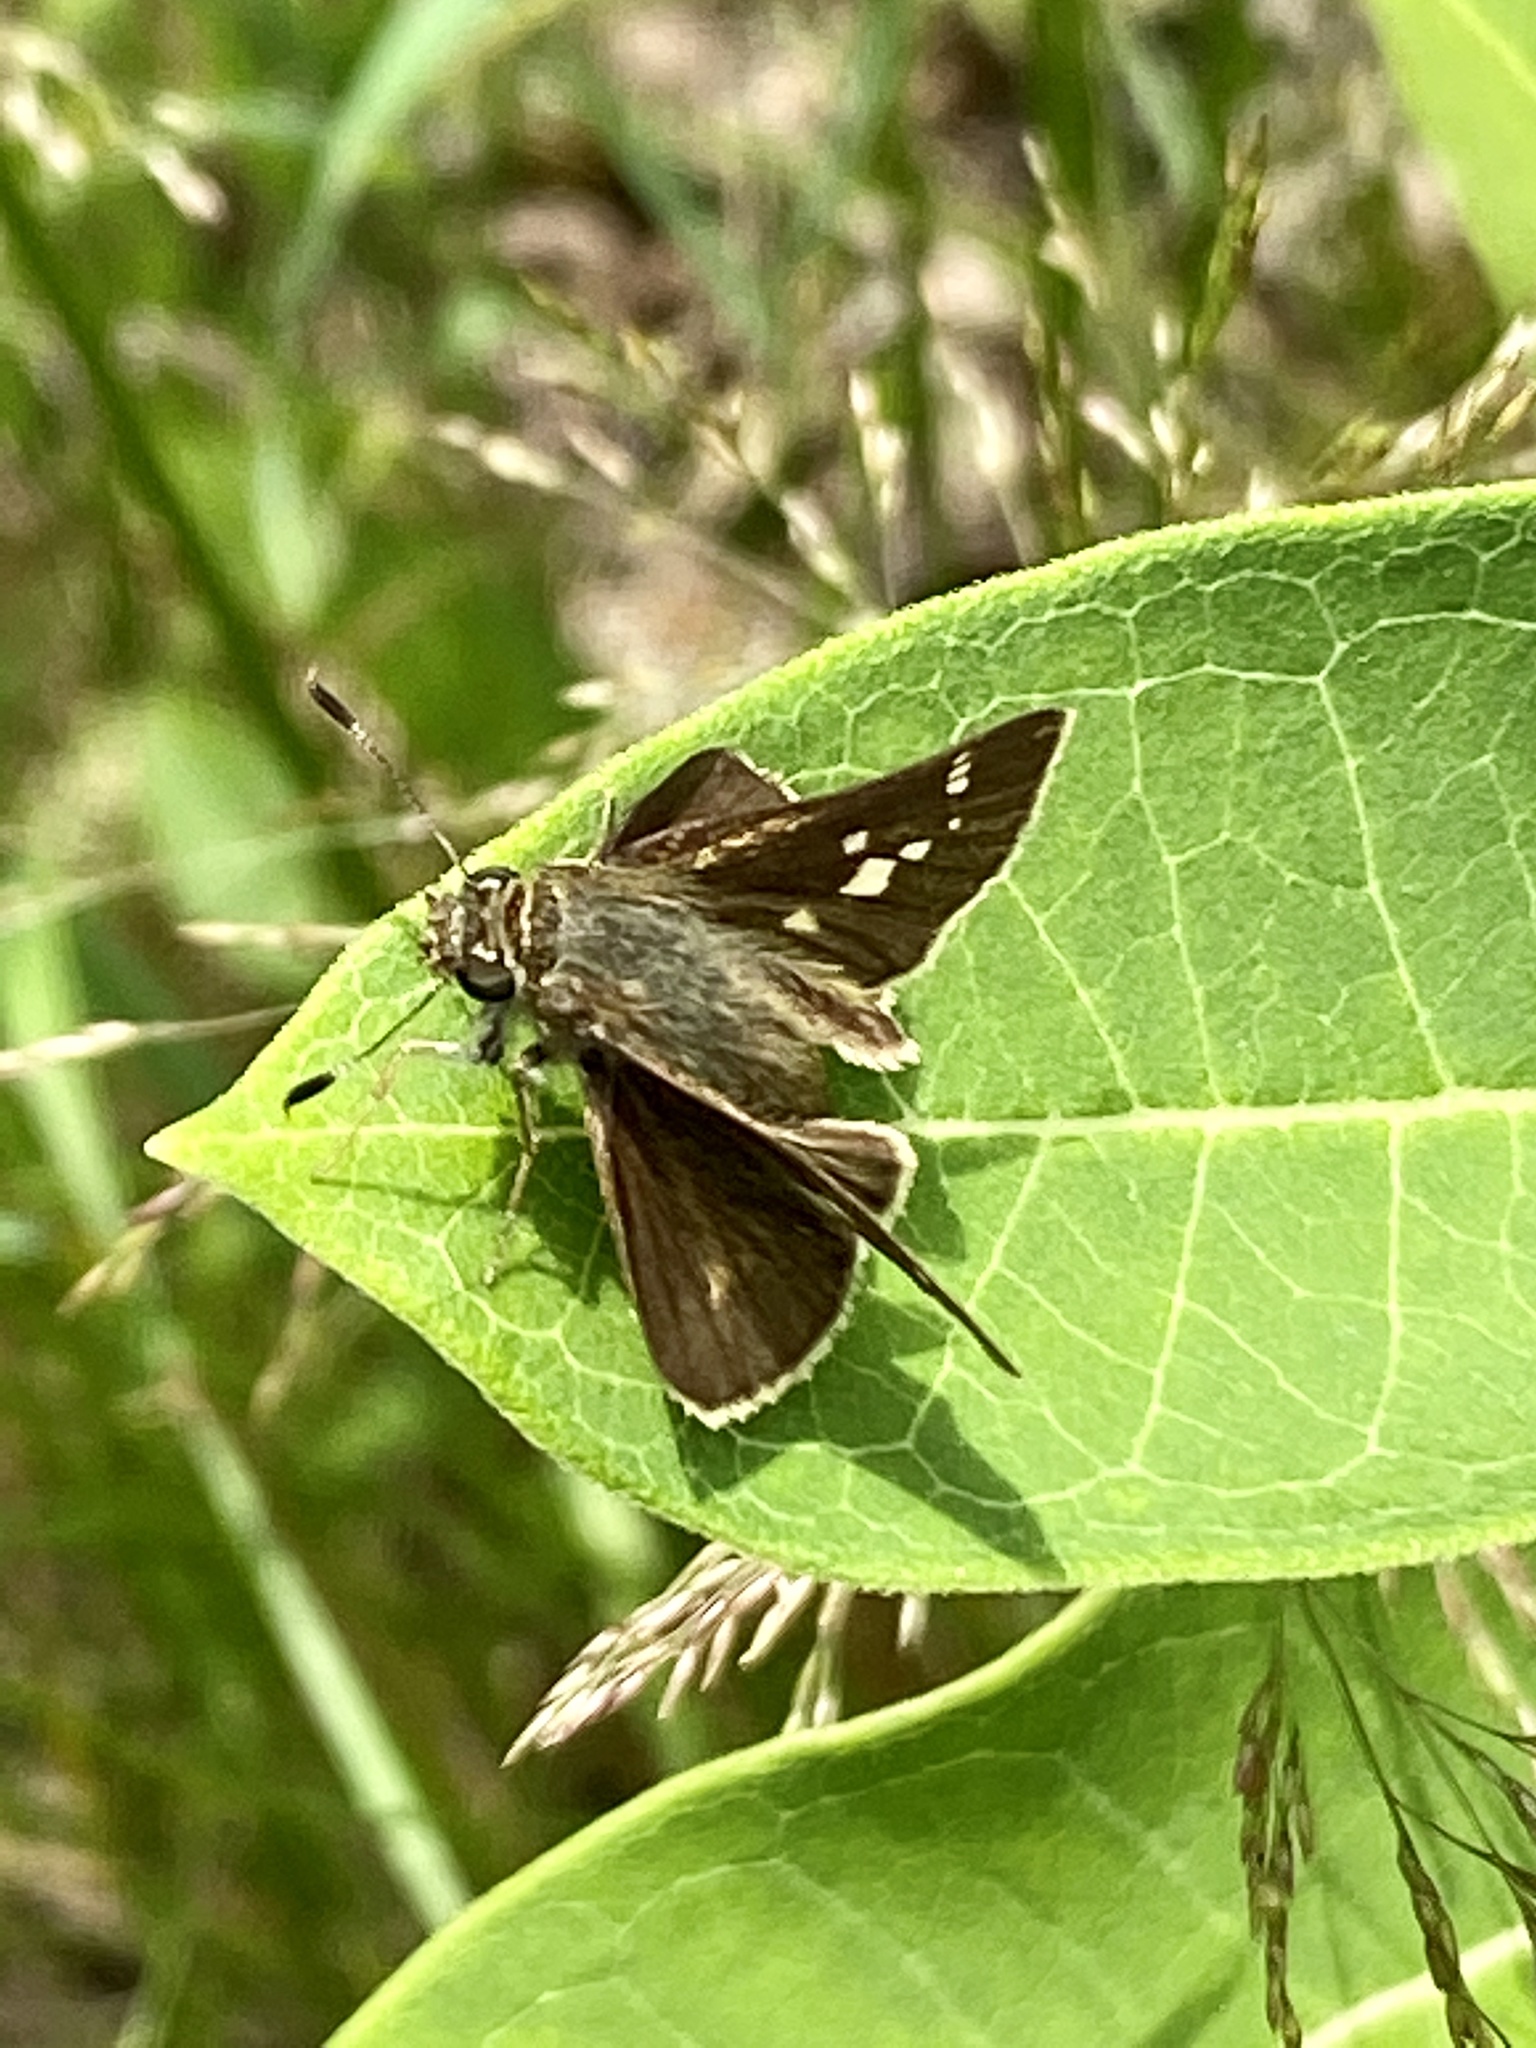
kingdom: Animalia
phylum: Arthropoda
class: Insecta
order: Lepidoptera
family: Hesperiidae
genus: Vernia
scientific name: Vernia verna
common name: Little glassywing
